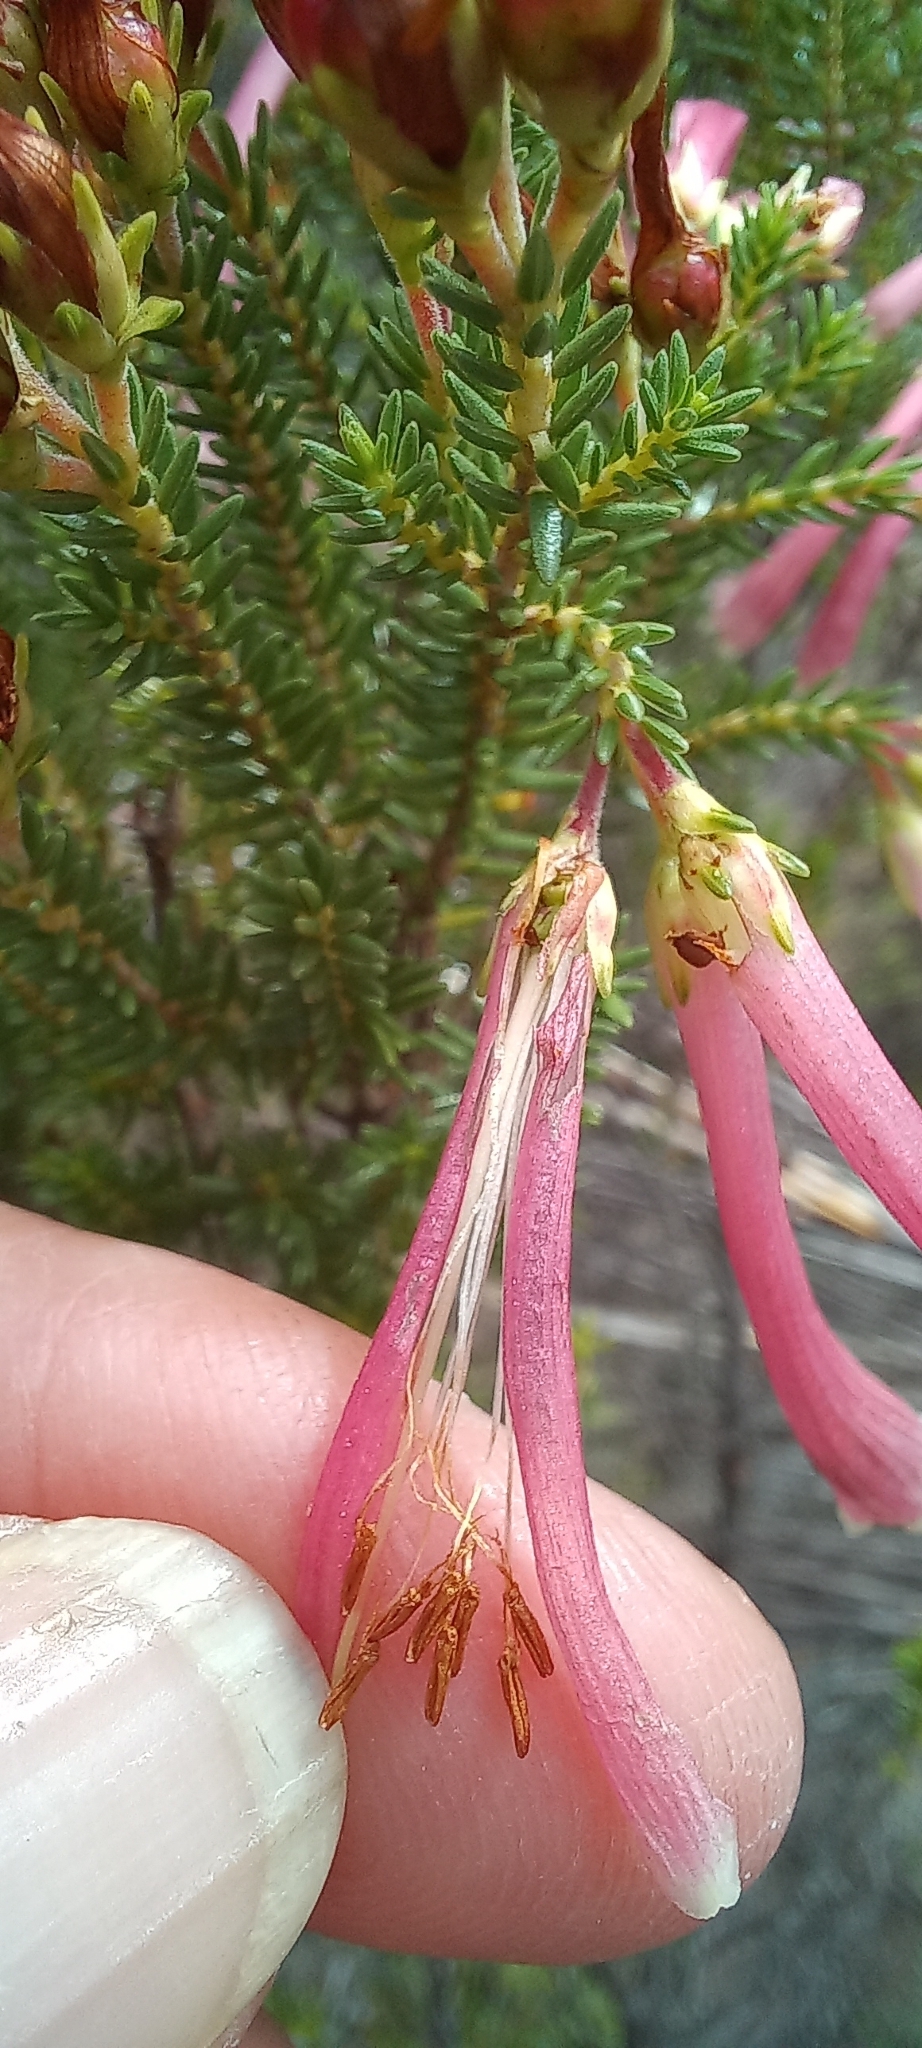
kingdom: Plantae
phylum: Tracheophyta
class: Magnoliopsida
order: Ericales
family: Ericaceae
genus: Erica
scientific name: Erica discolor
